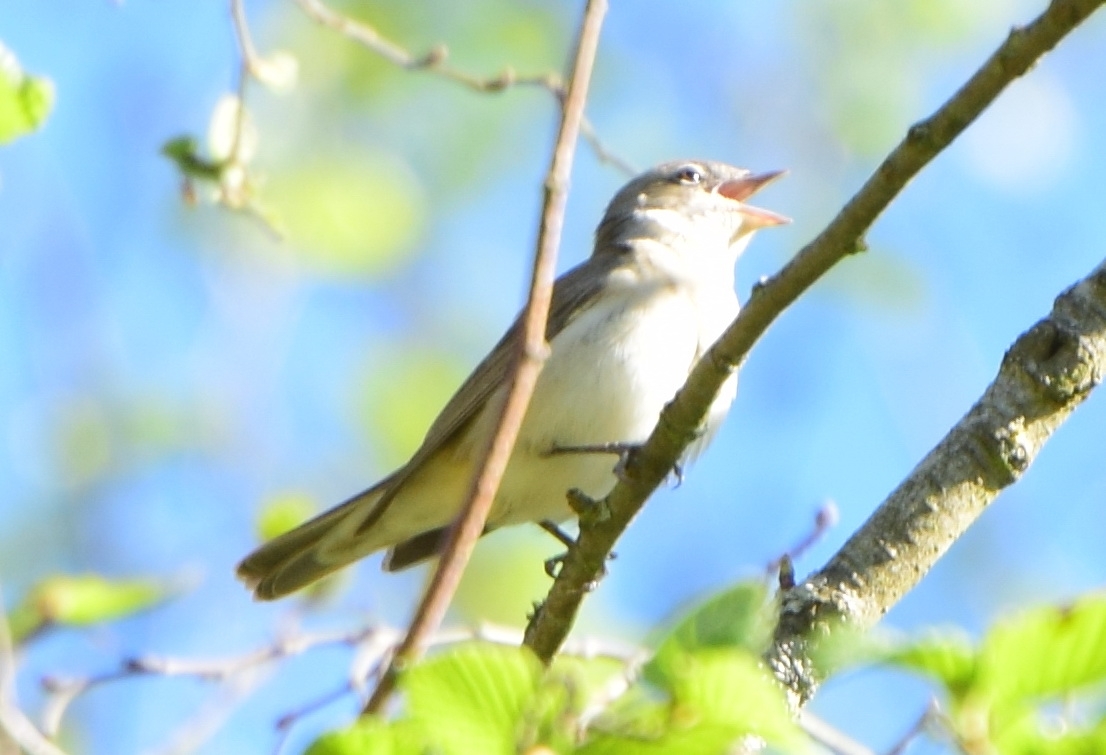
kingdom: Animalia
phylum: Chordata
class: Aves
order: Passeriformes
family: Sylviidae
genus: Sylvia
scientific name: Sylvia borin
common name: Garden warbler
